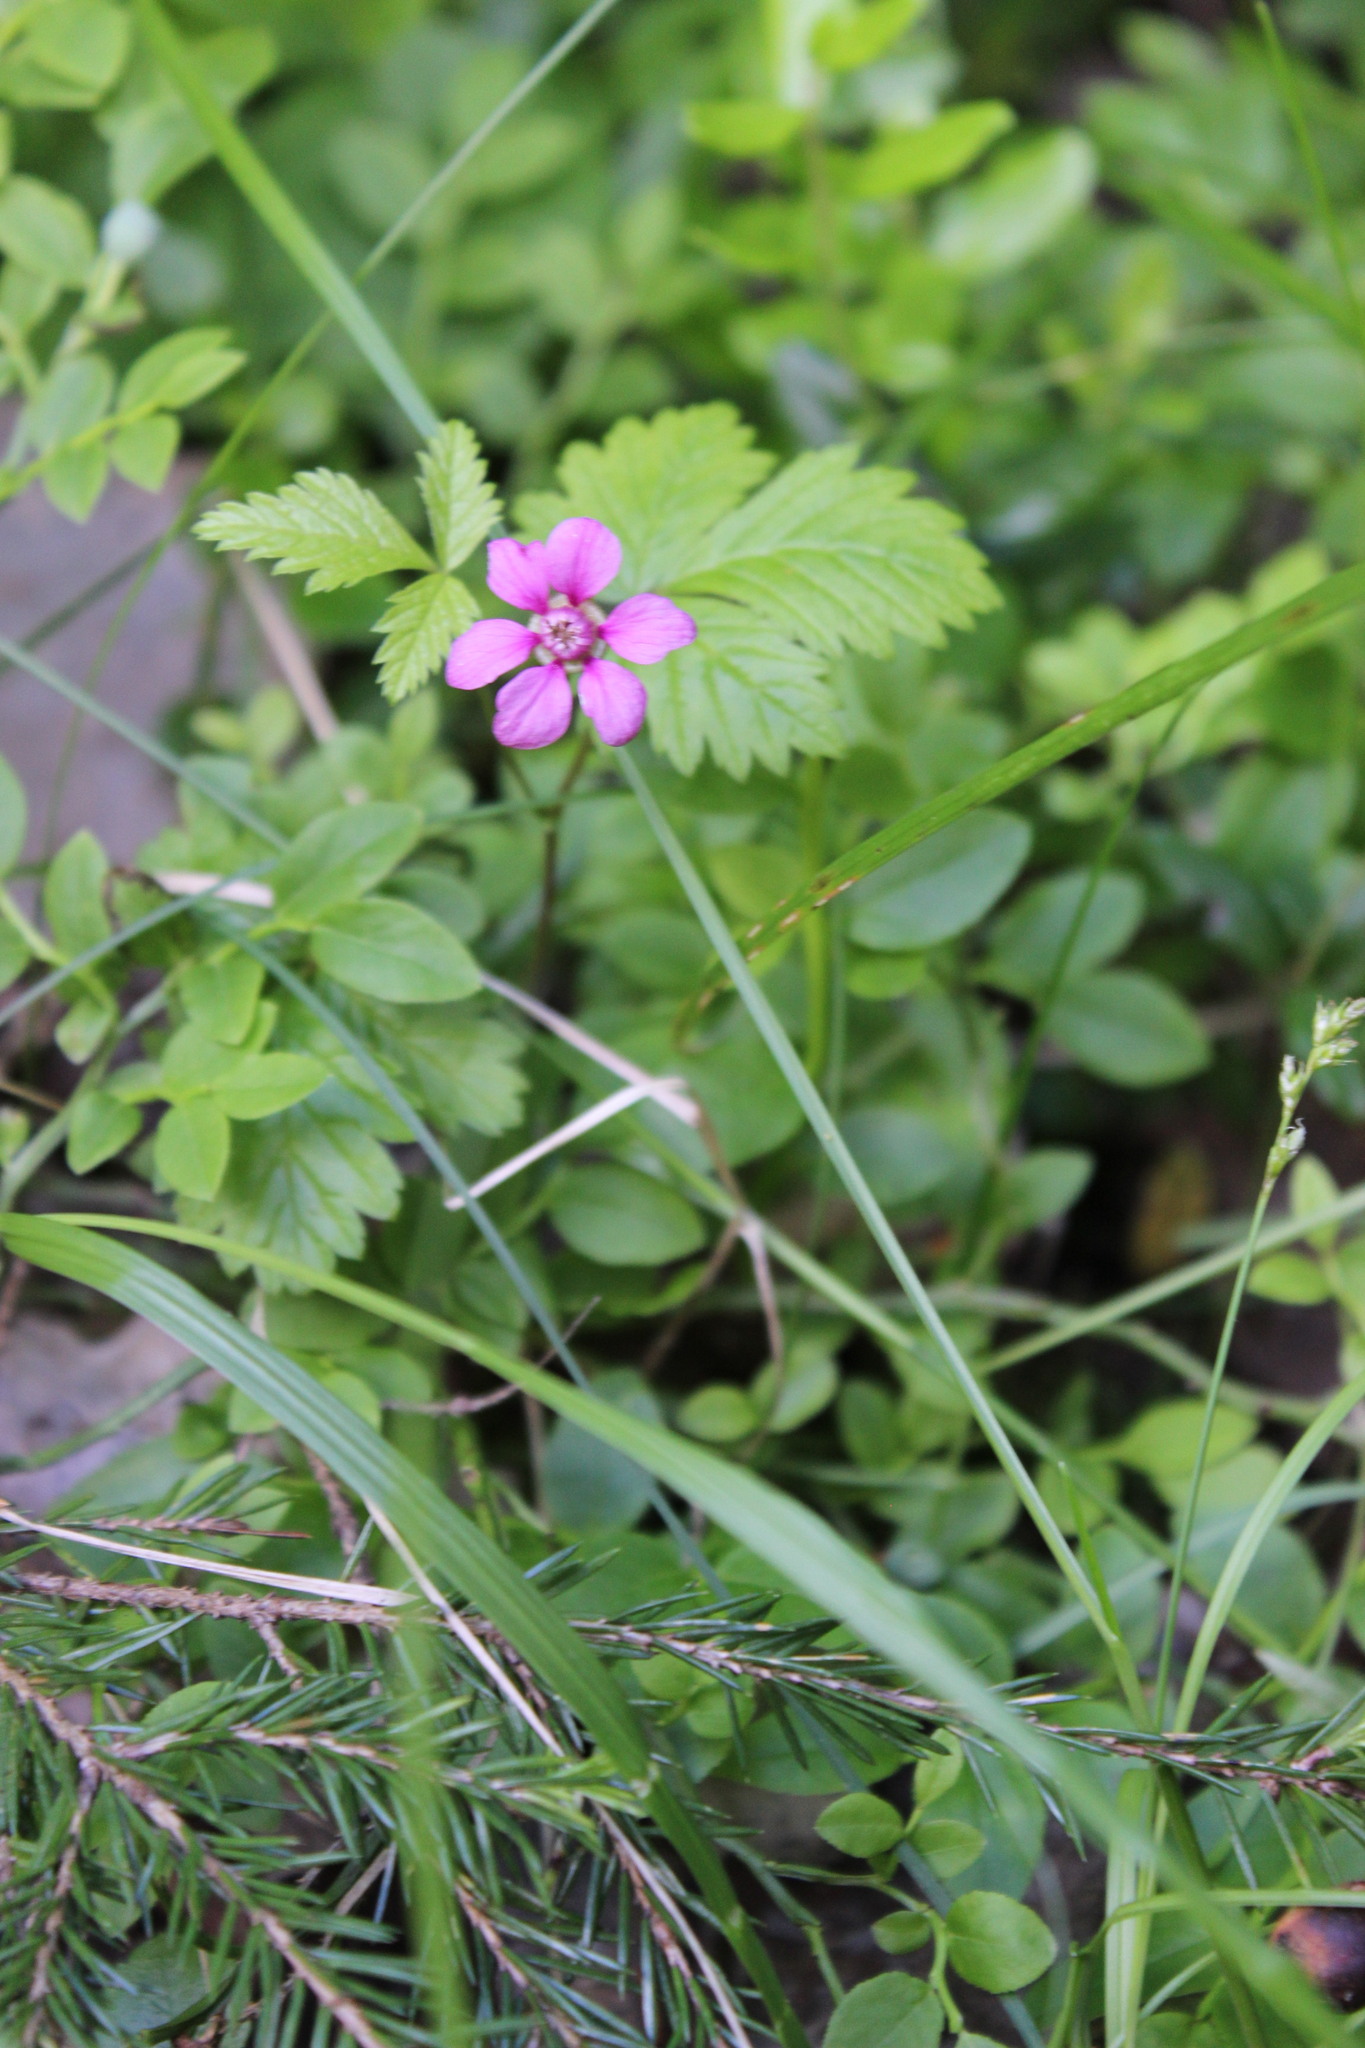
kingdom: Plantae
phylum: Tracheophyta
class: Magnoliopsida
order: Rosales
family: Rosaceae
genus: Rubus
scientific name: Rubus arcticus
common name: Arctic bramble
